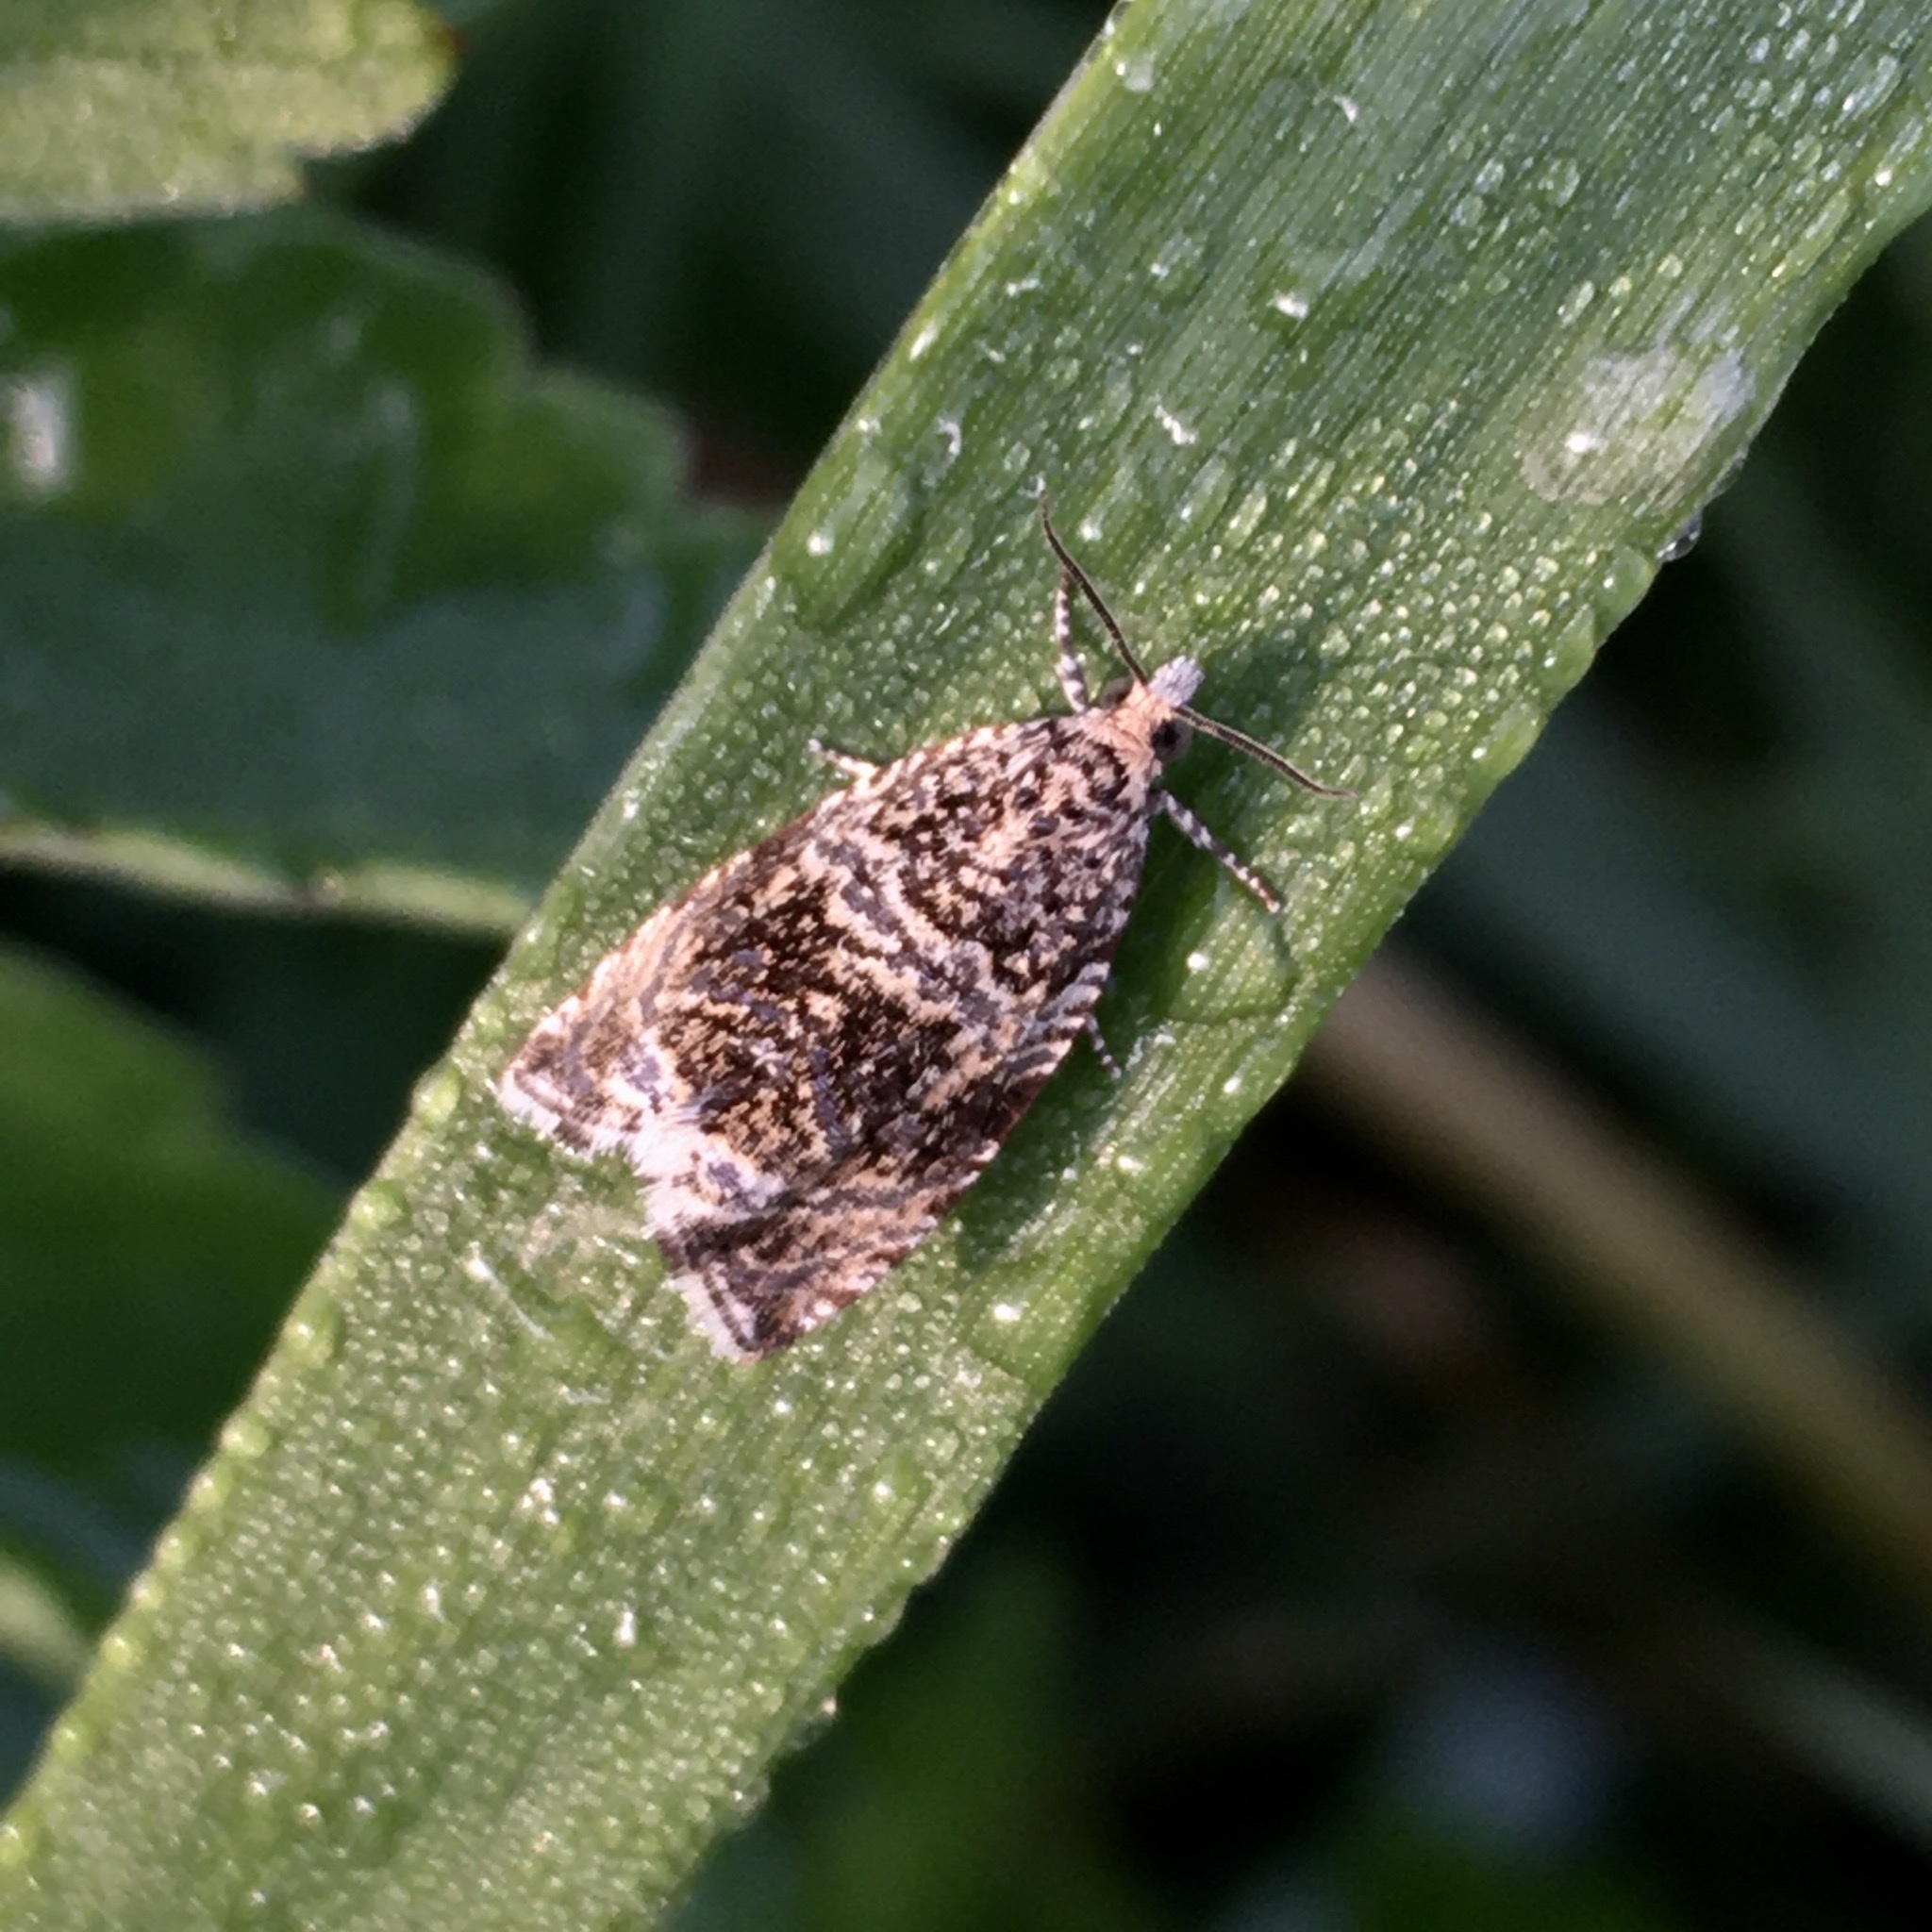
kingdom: Animalia
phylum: Arthropoda
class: Insecta
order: Lepidoptera
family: Tortricidae
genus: Syricoris
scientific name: Syricoris lacunana
